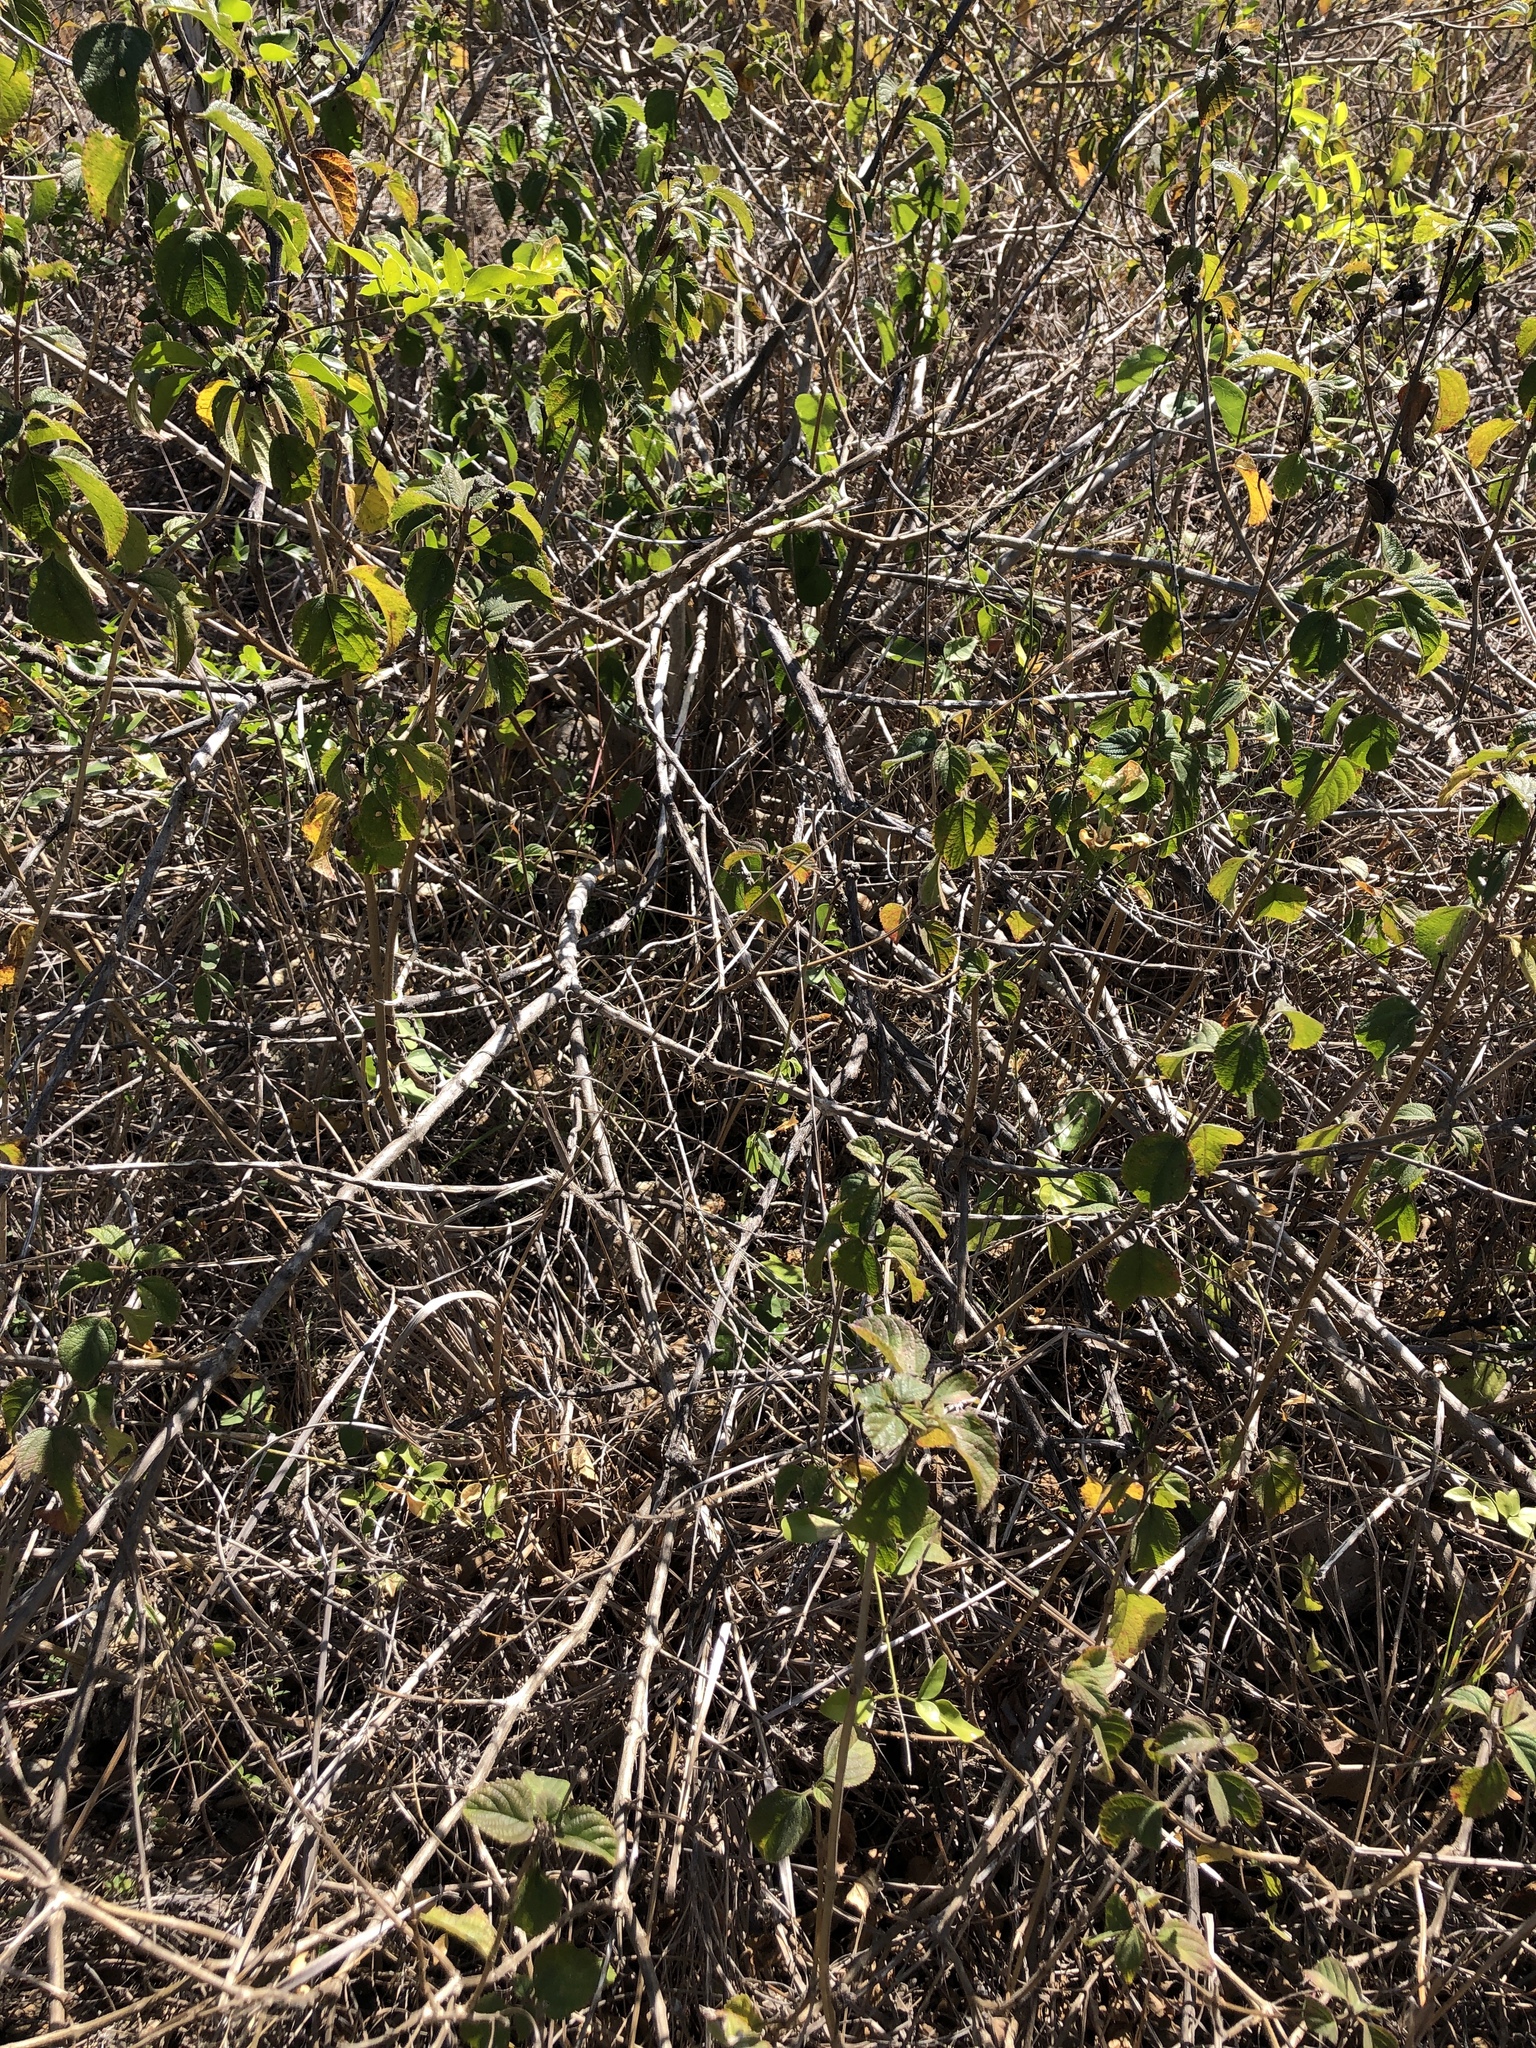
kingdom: Plantae
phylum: Tracheophyta
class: Magnoliopsida
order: Lamiales
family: Verbenaceae
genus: Lantana
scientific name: Lantana camara
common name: Lantana
